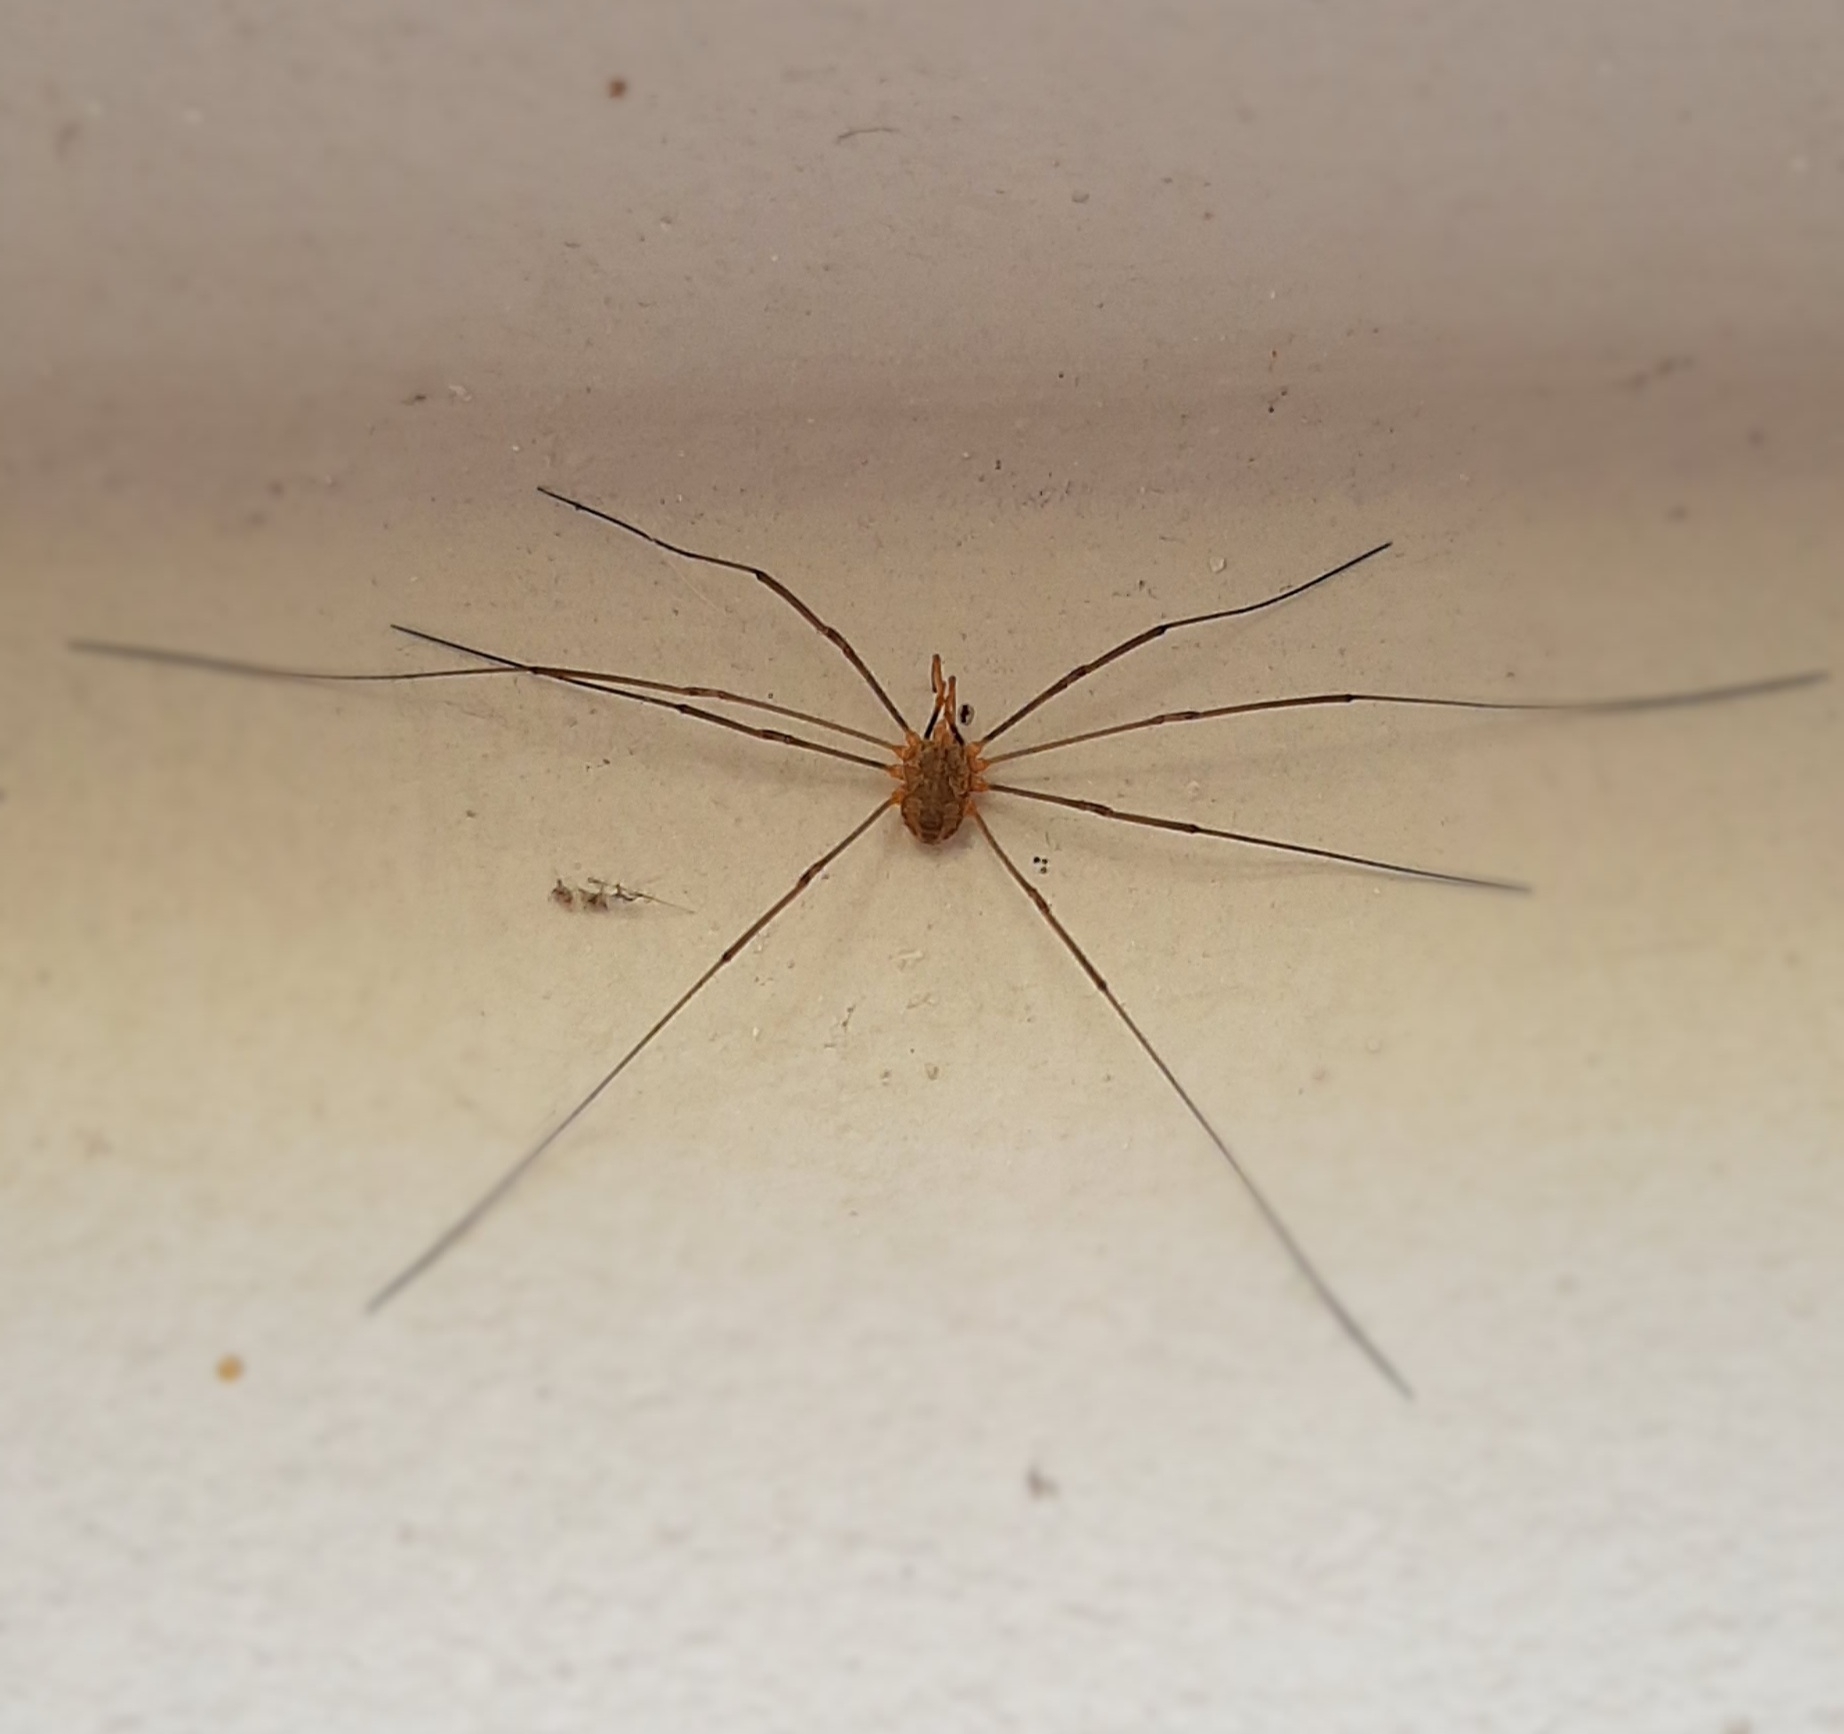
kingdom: Animalia
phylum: Arthropoda
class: Arachnida
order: Opiliones
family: Phalangiidae
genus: Phalangium
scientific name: Phalangium opilio
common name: Daddy longleg
